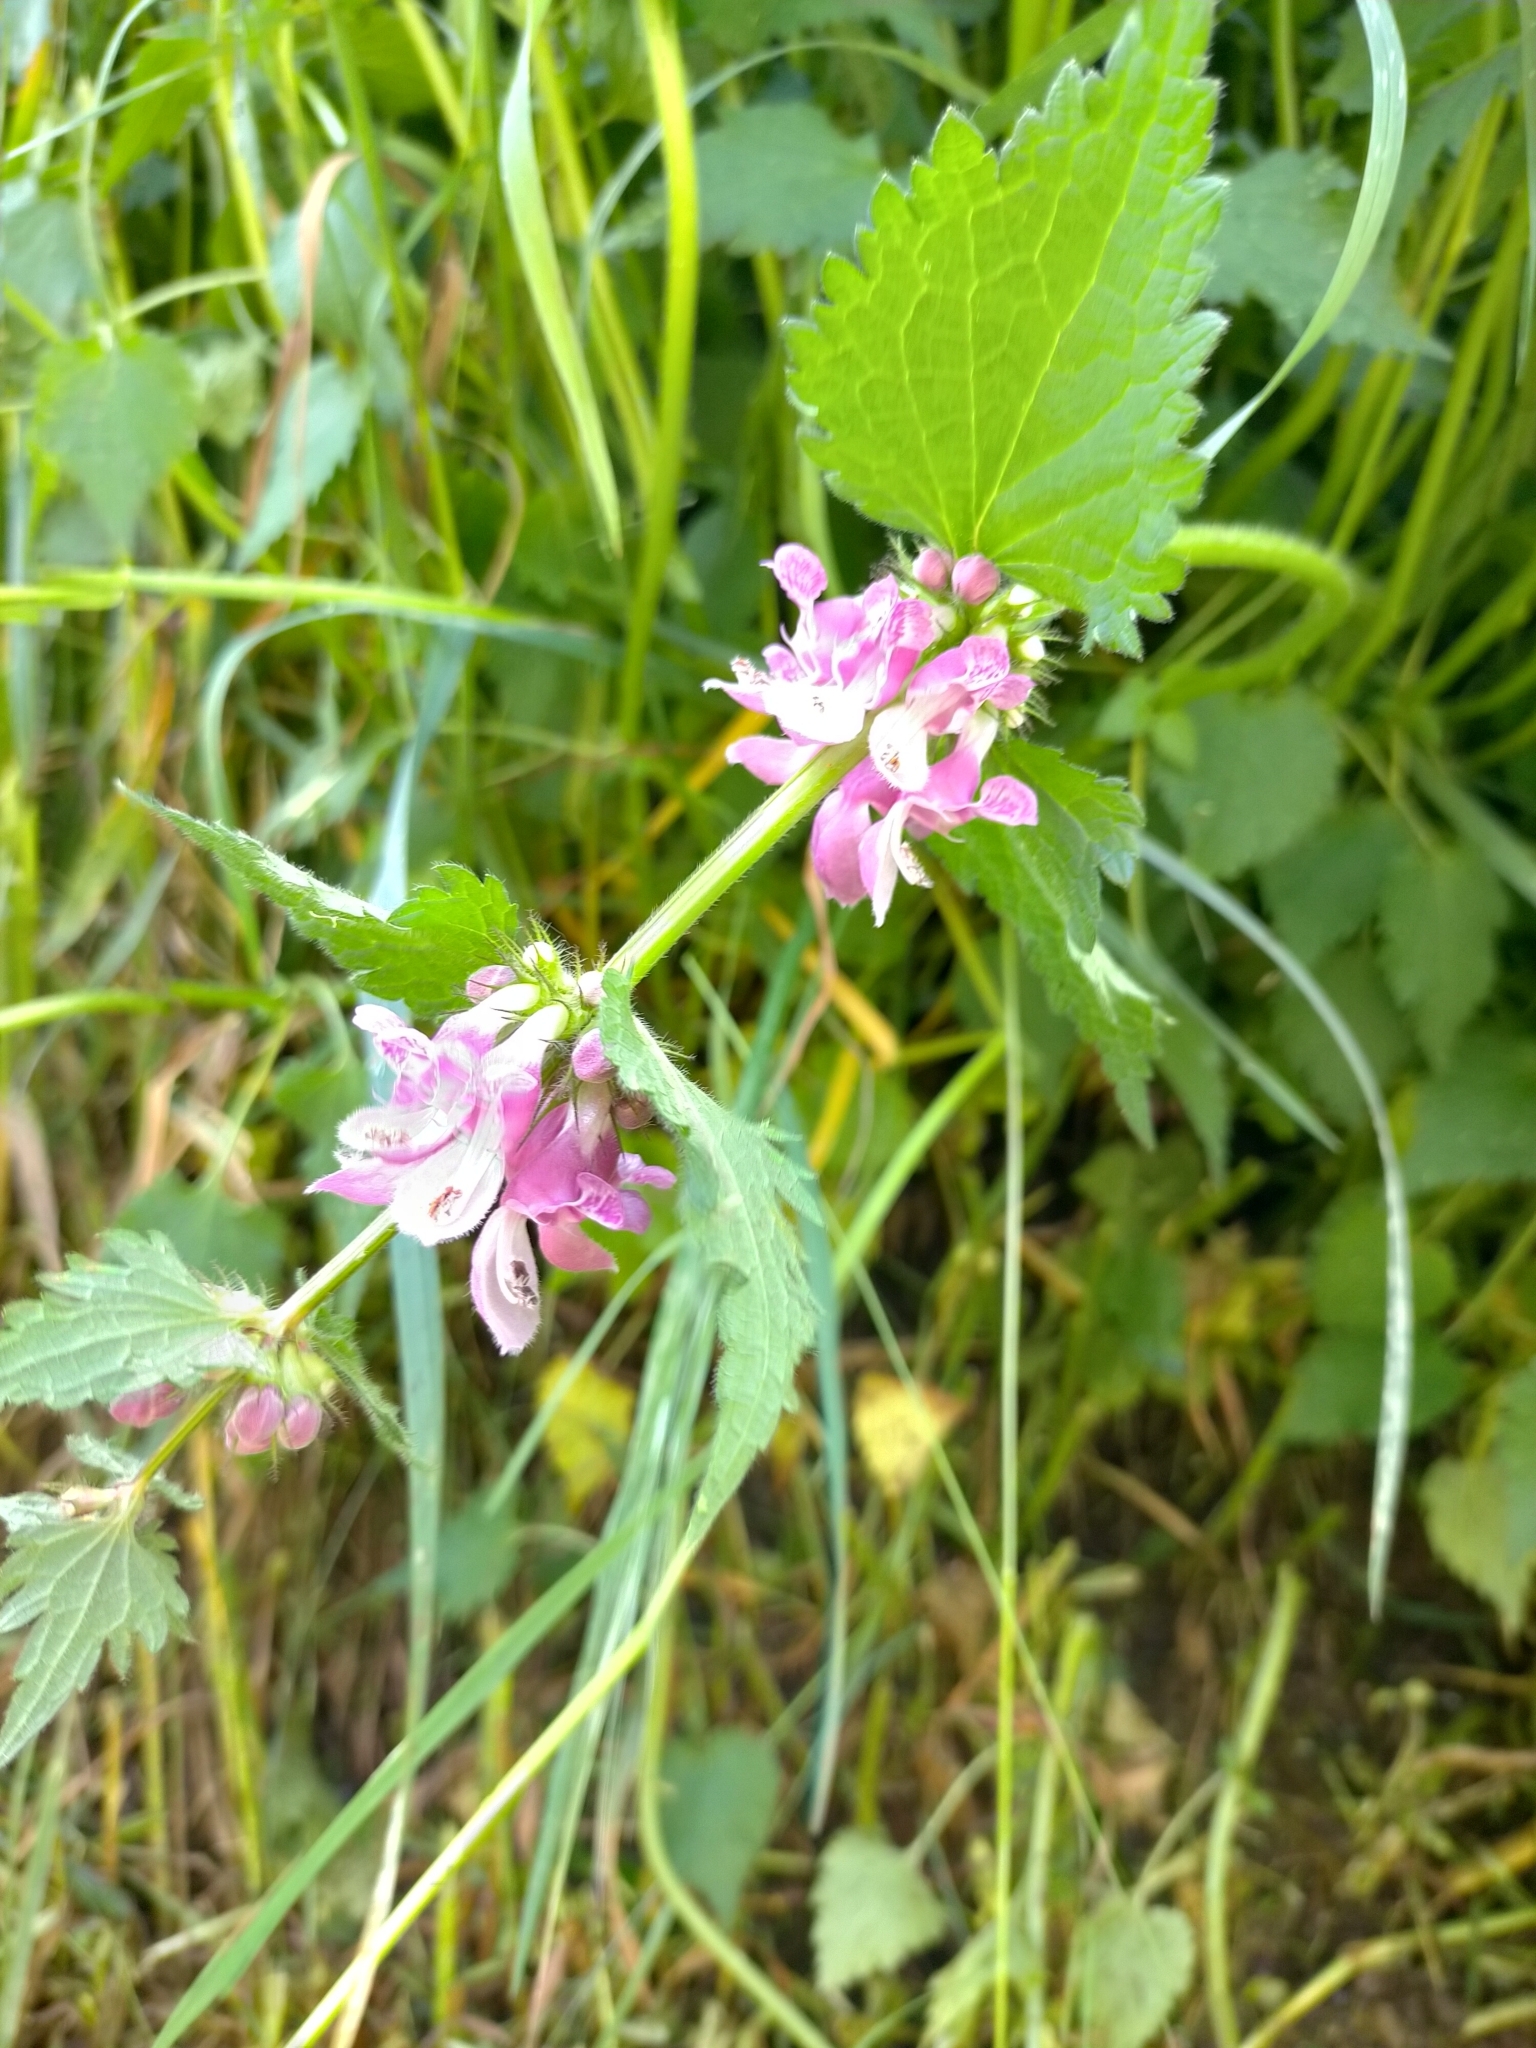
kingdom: Plantae
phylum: Tracheophyta
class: Magnoliopsida
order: Lamiales
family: Lamiaceae
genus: Lamium
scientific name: Lamium maculatum
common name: Spotted dead-nettle
